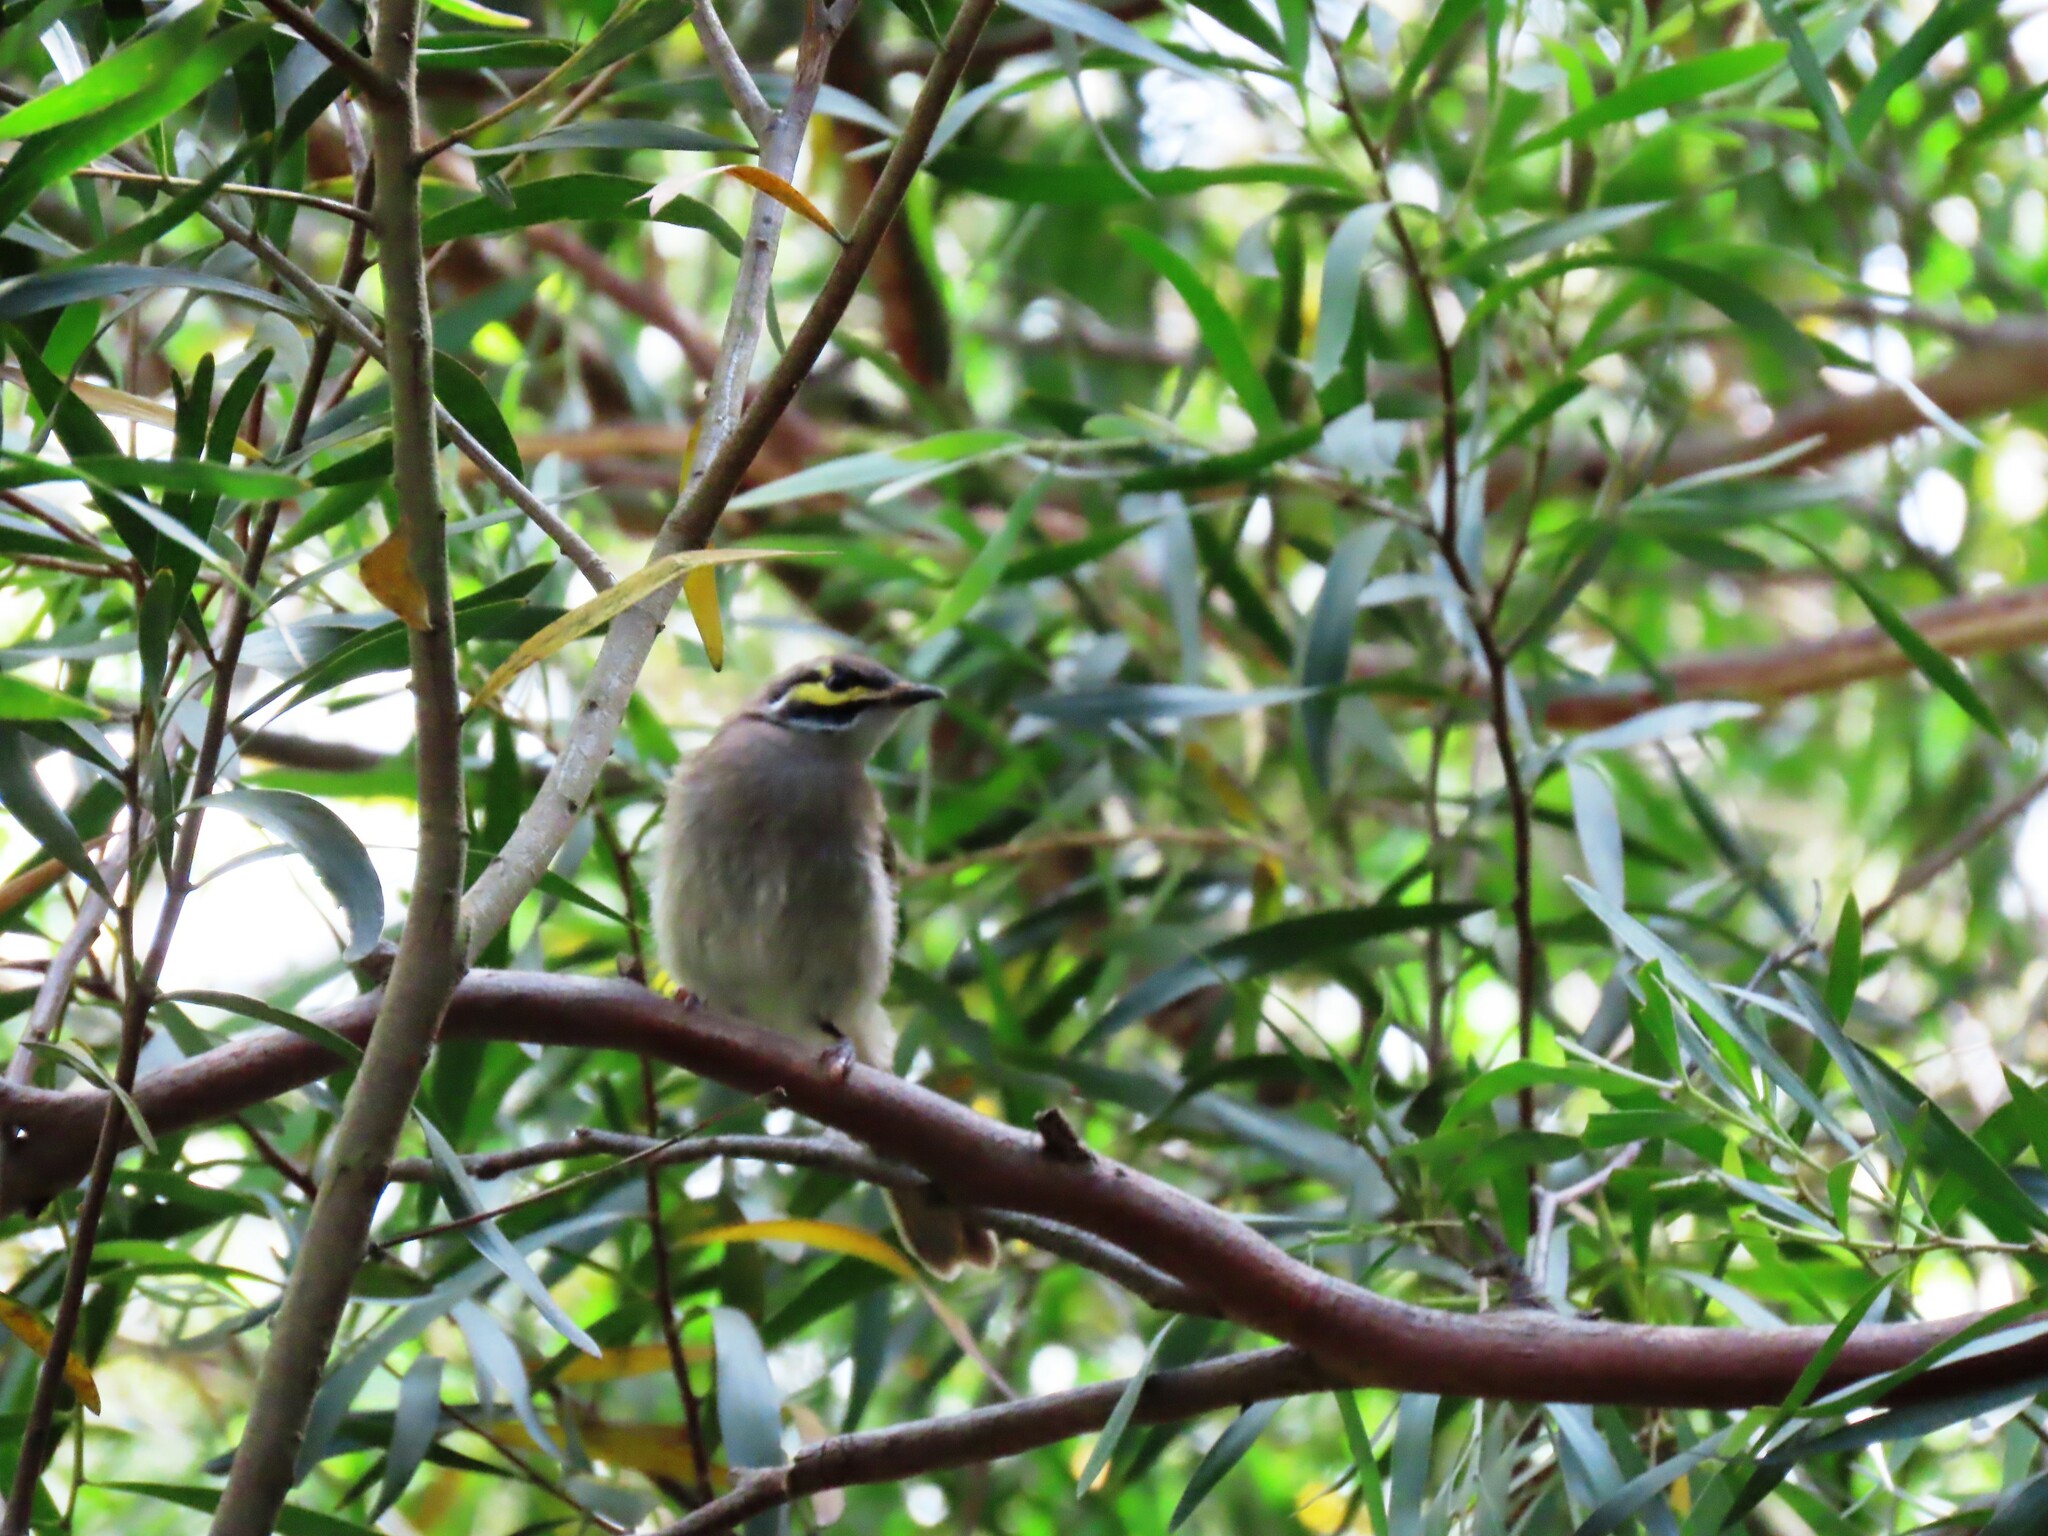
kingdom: Animalia
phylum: Chordata
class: Aves
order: Passeriformes
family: Meliphagidae
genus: Caligavis
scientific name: Caligavis chrysops
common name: Yellow-faced honeyeater
